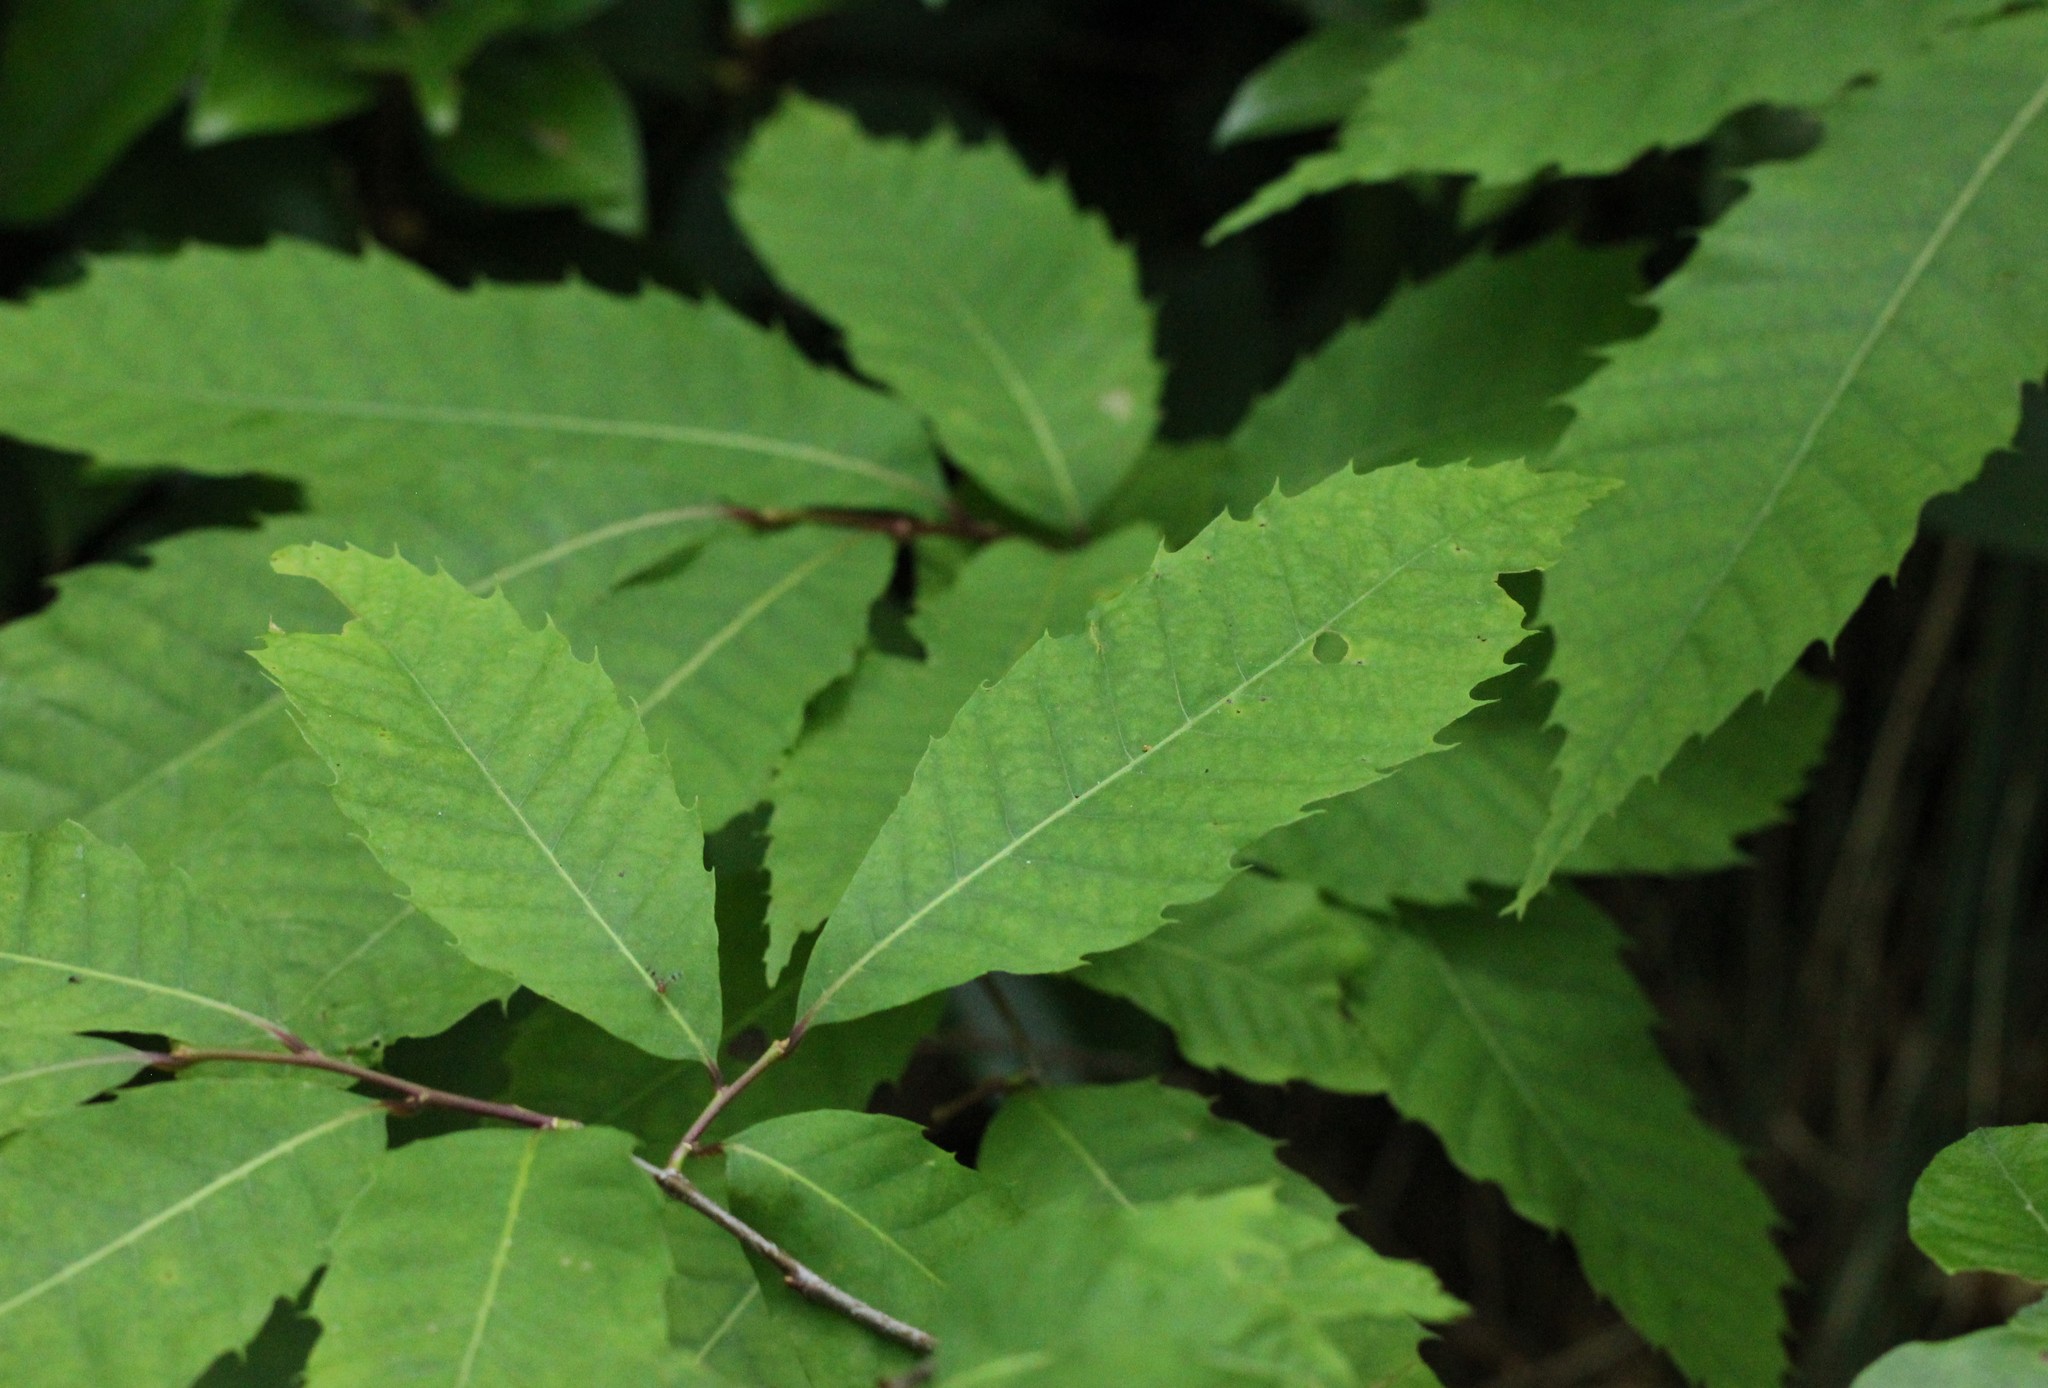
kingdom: Plantae
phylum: Tracheophyta
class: Magnoliopsida
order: Fagales
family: Fagaceae
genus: Castanea
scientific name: Castanea dentata
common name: American chestnut
